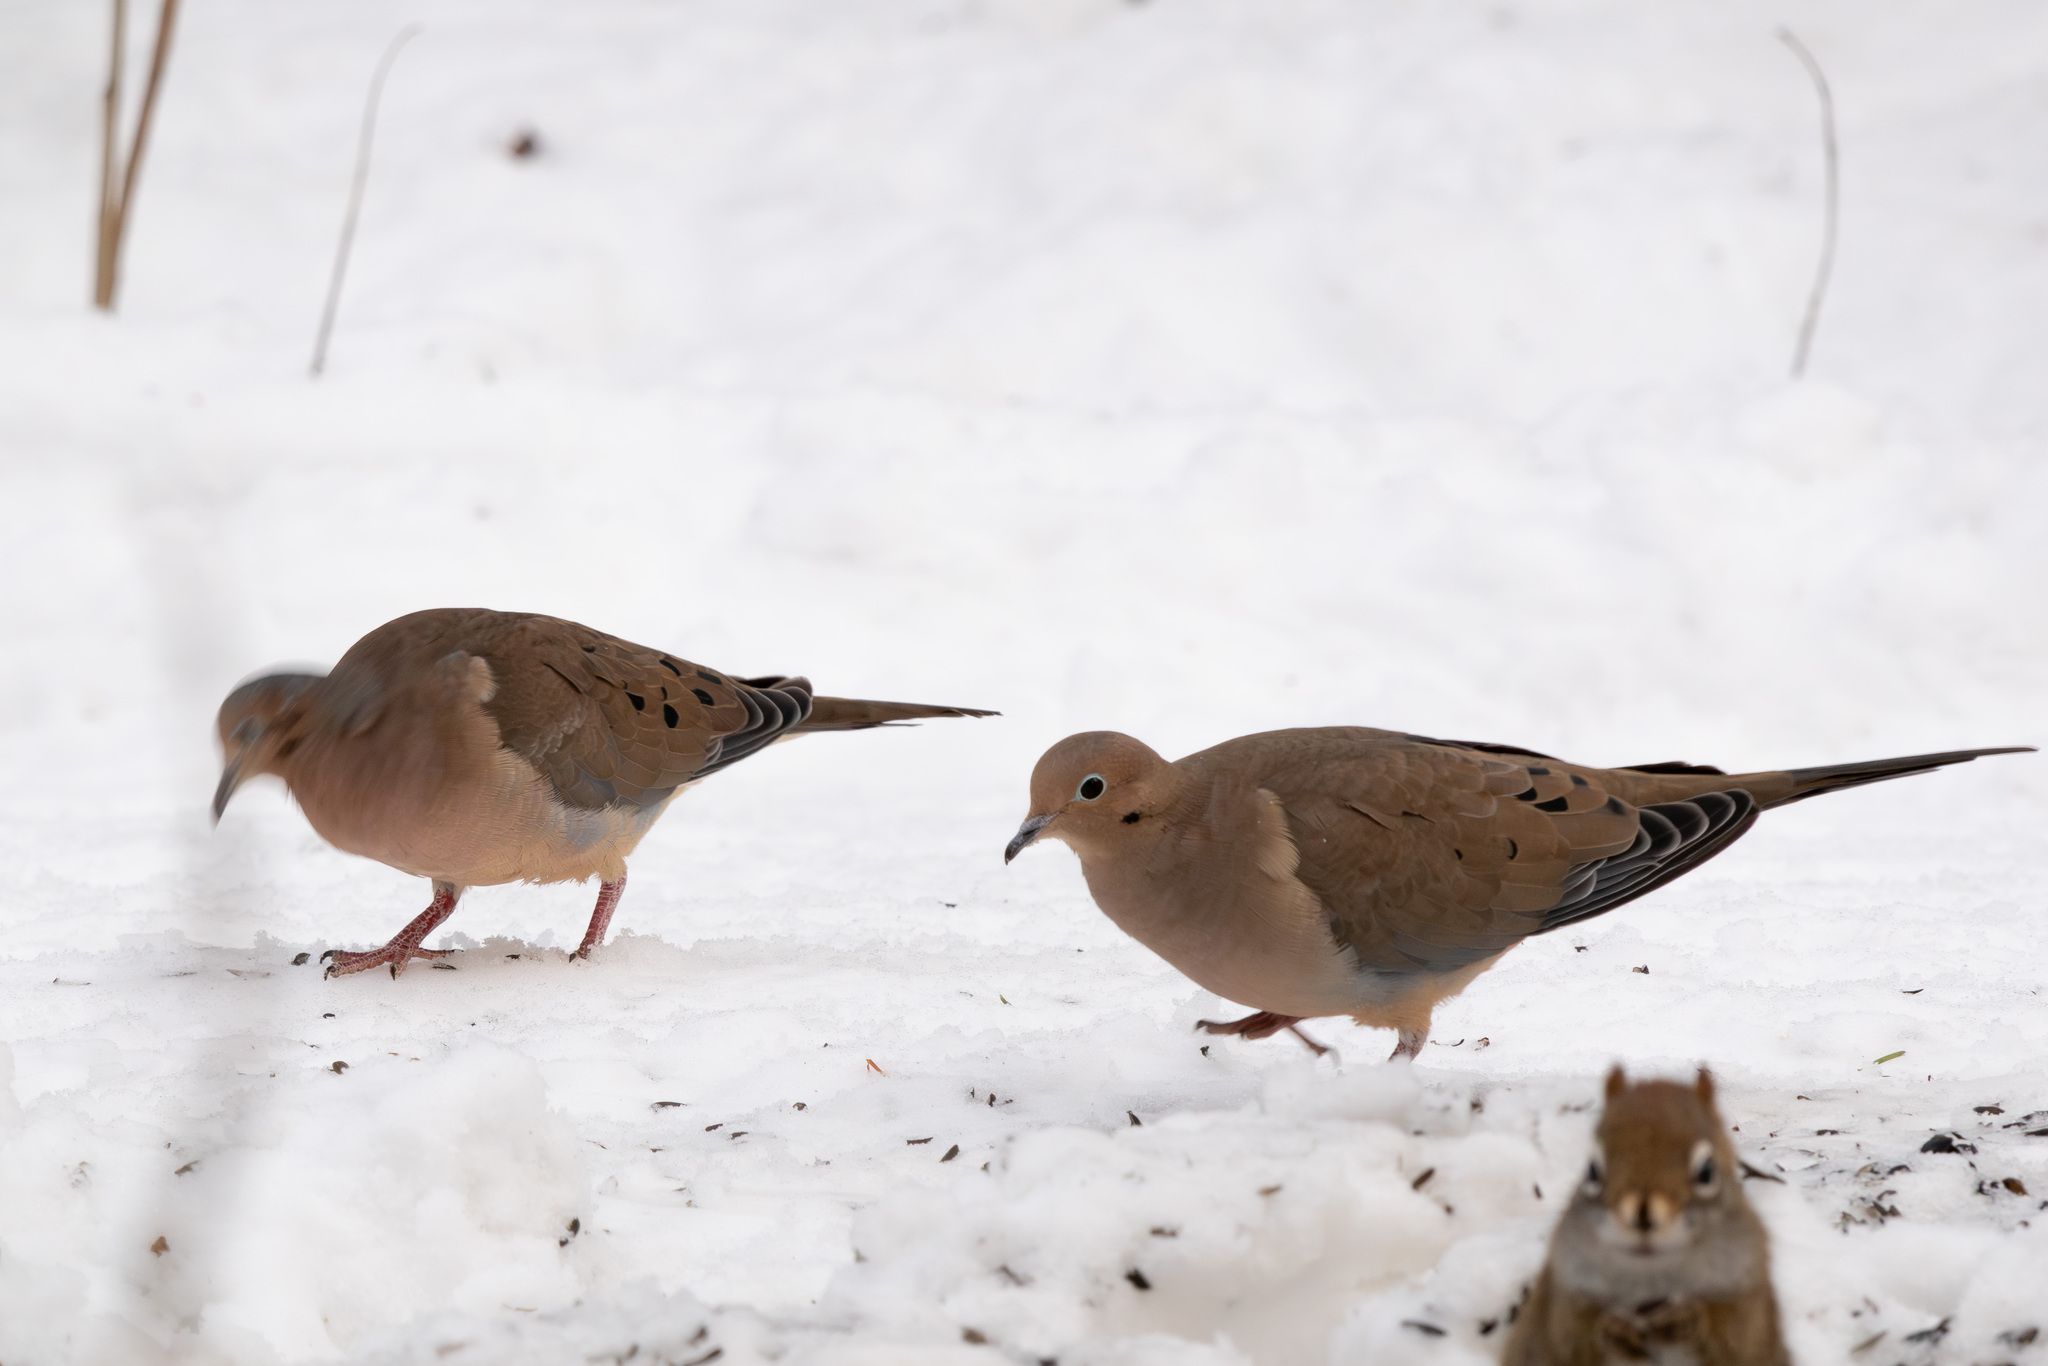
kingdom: Animalia
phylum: Chordata
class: Aves
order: Columbiformes
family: Columbidae
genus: Zenaida
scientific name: Zenaida macroura
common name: Mourning dove
